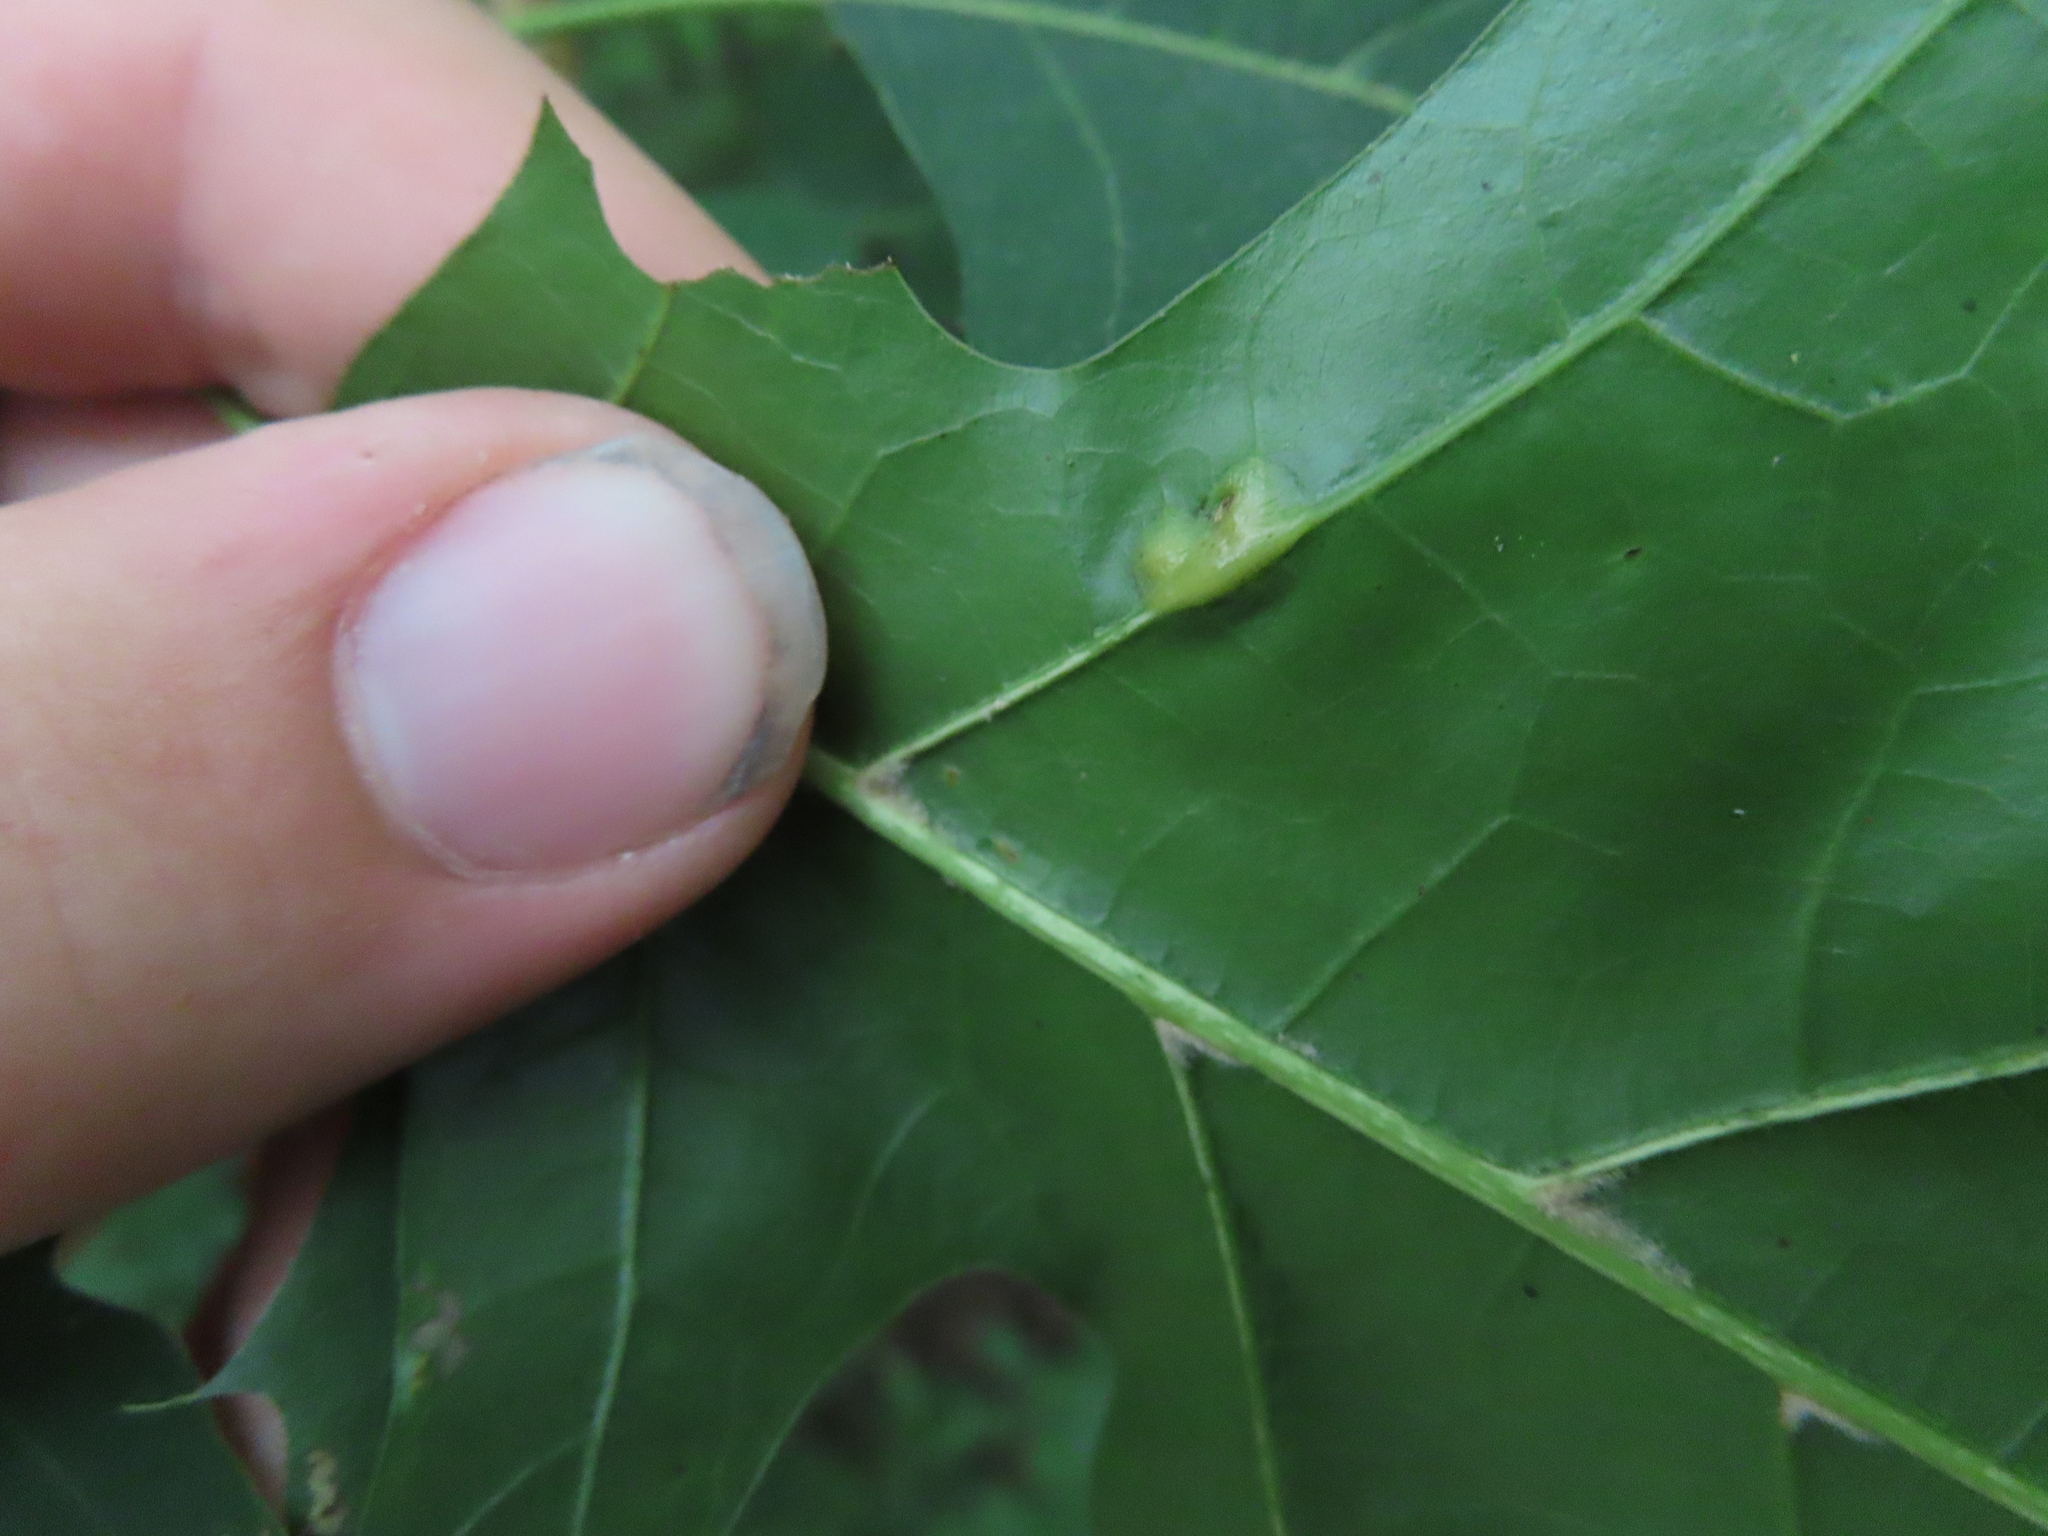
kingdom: Animalia
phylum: Arthropoda
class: Insecta
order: Diptera
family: Cecidomyiidae
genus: Polystepha
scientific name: Polystepha pilulae
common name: Oak leaf gall midge
